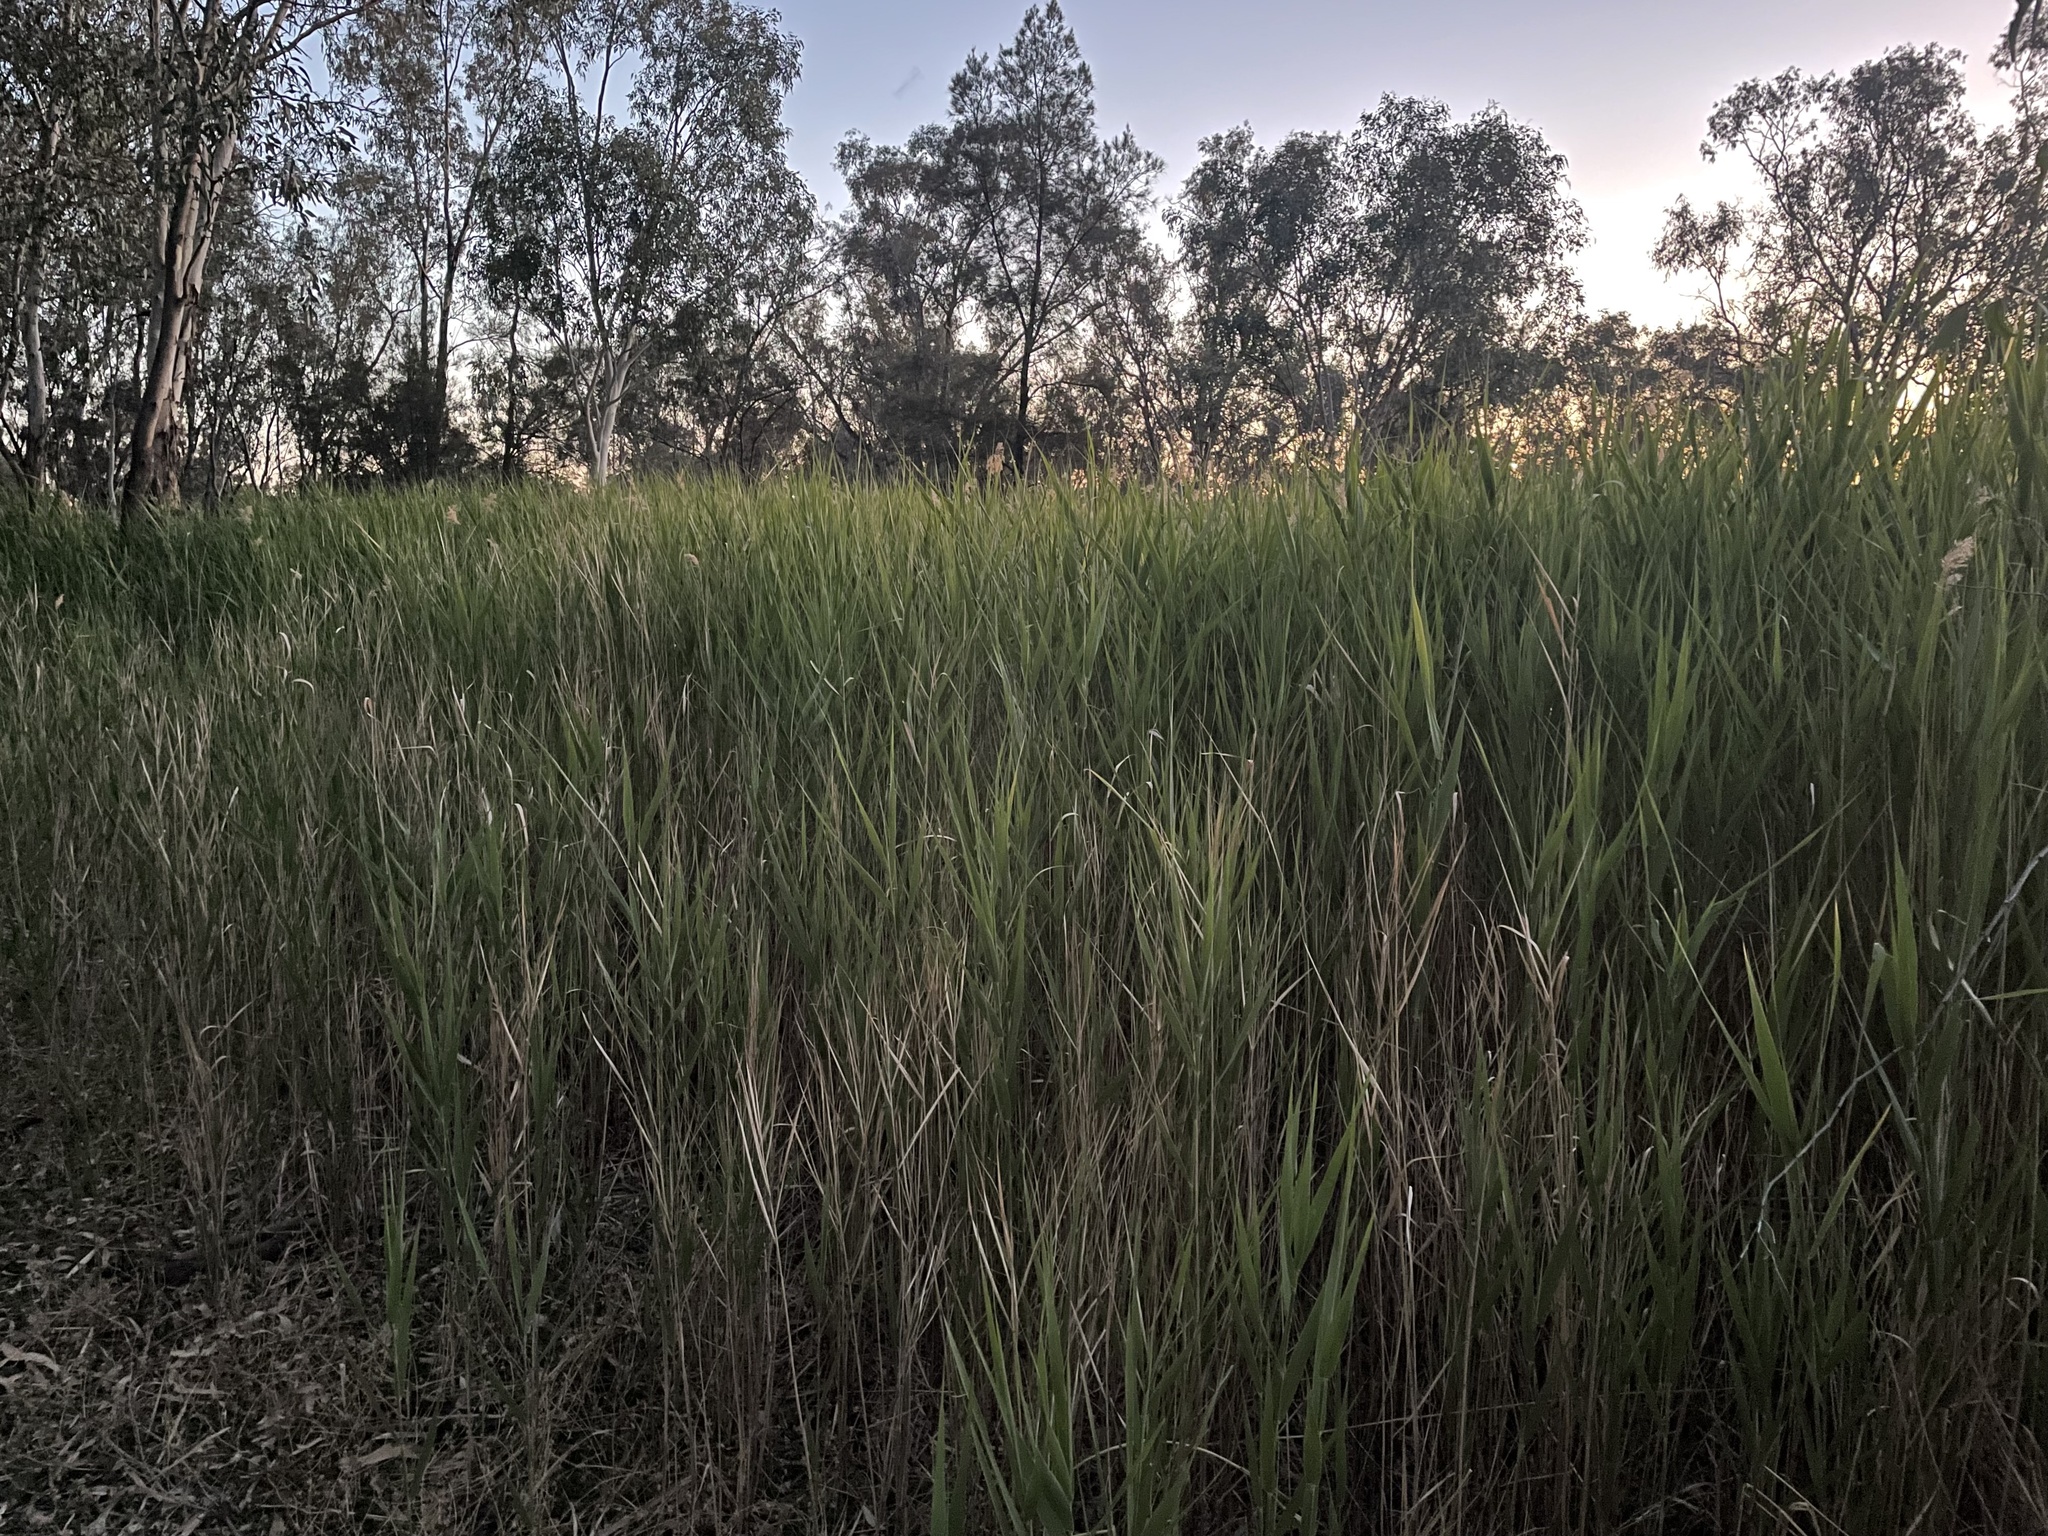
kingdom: Plantae
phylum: Tracheophyta
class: Liliopsida
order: Poales
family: Poaceae
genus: Phragmites
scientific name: Phragmites australis
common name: Common reed
